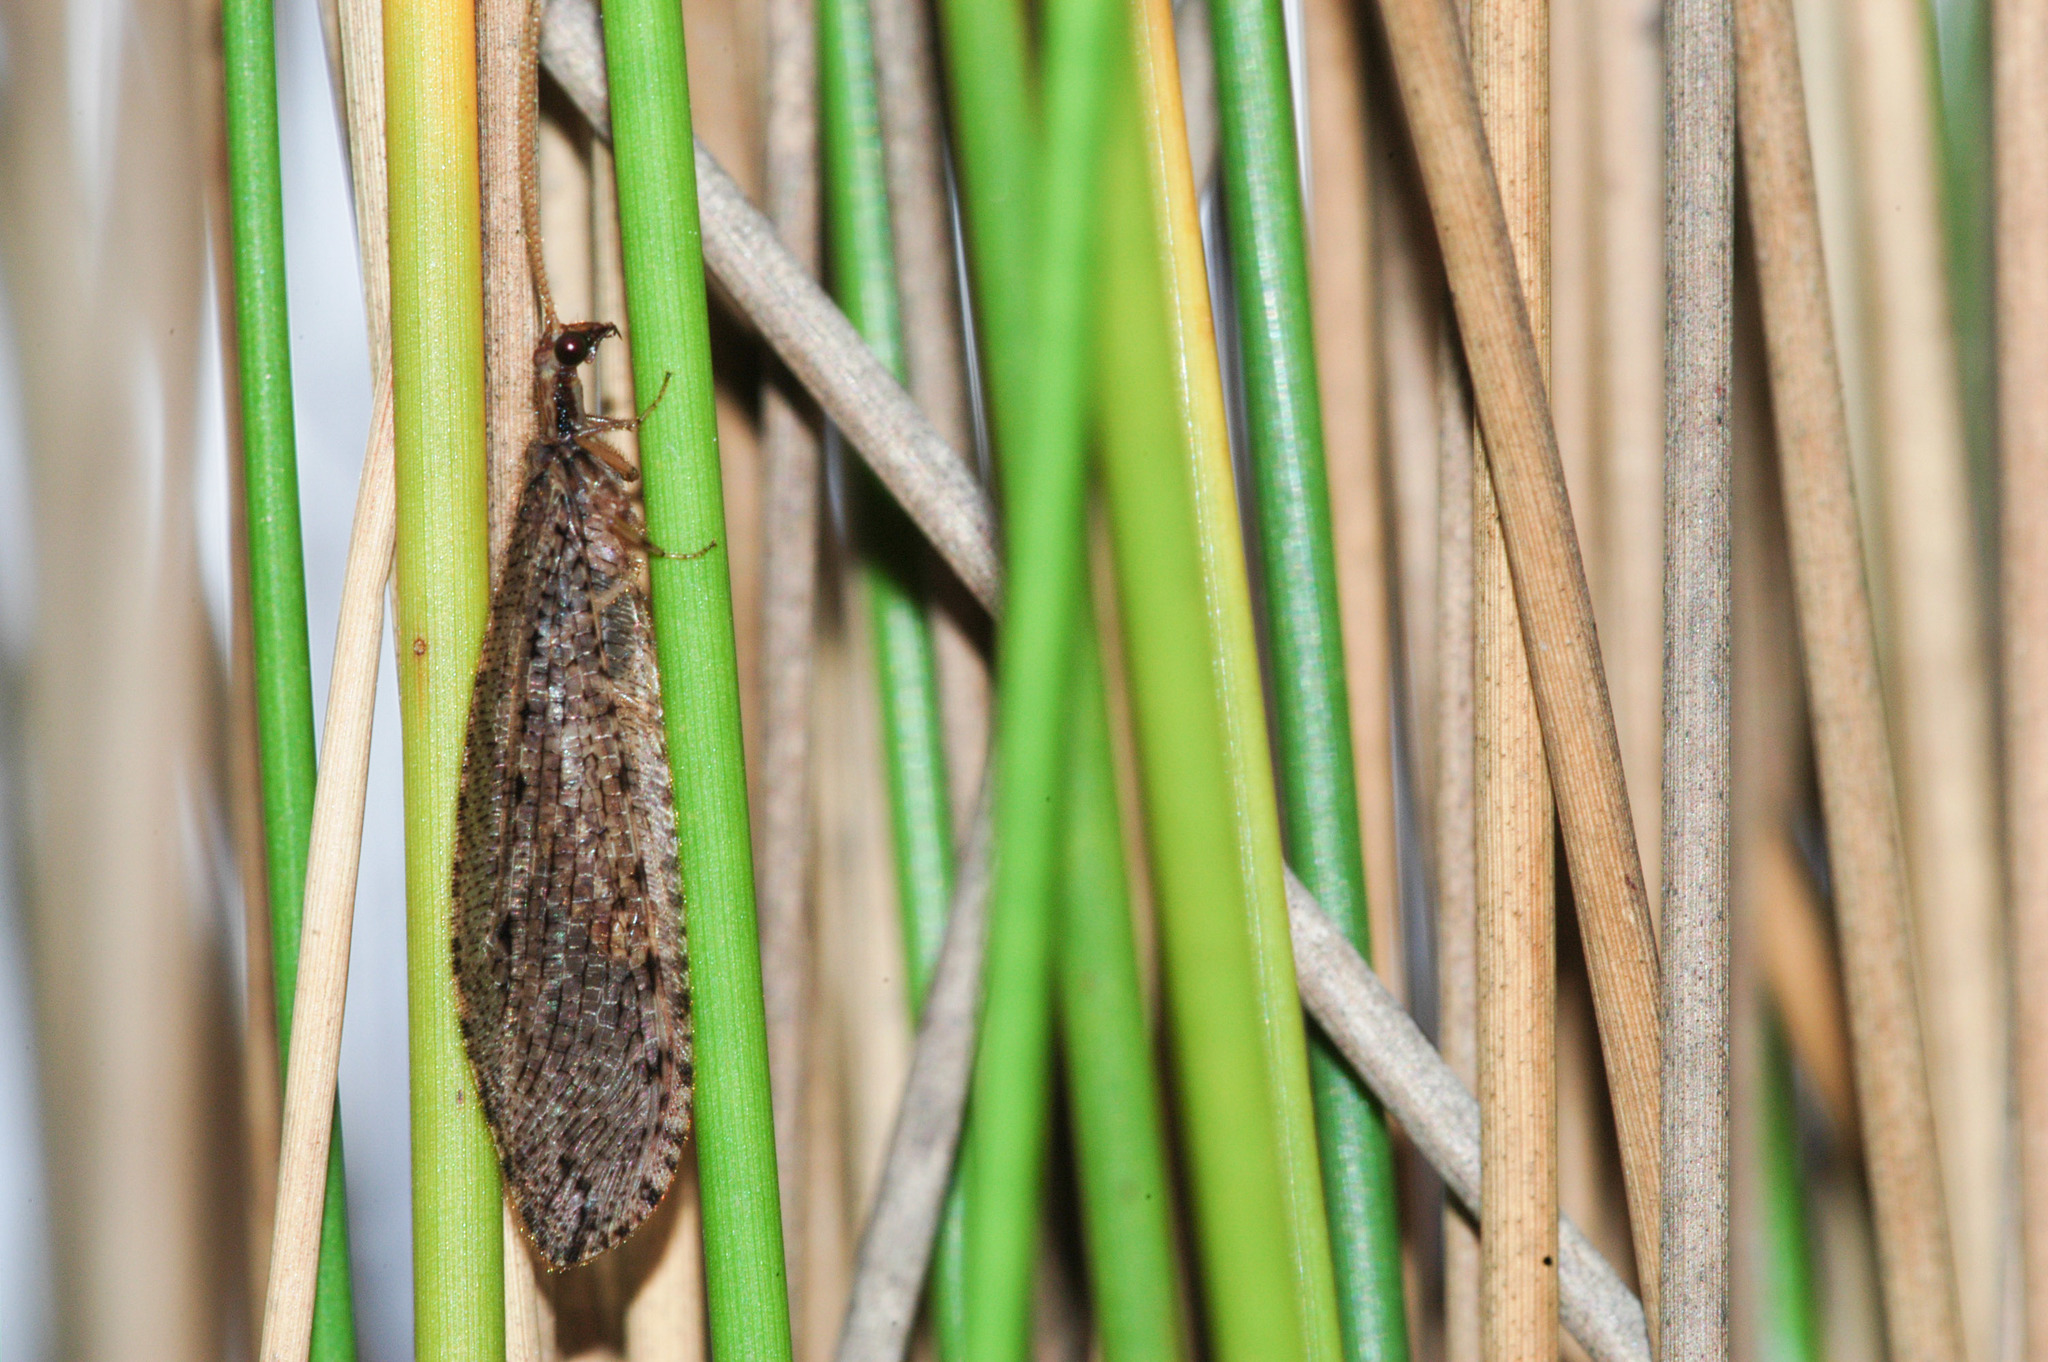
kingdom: Animalia
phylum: Arthropoda
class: Insecta
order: Neuroptera
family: Osmylidae
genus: Stenosmylus
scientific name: Stenosmylus tenuis
